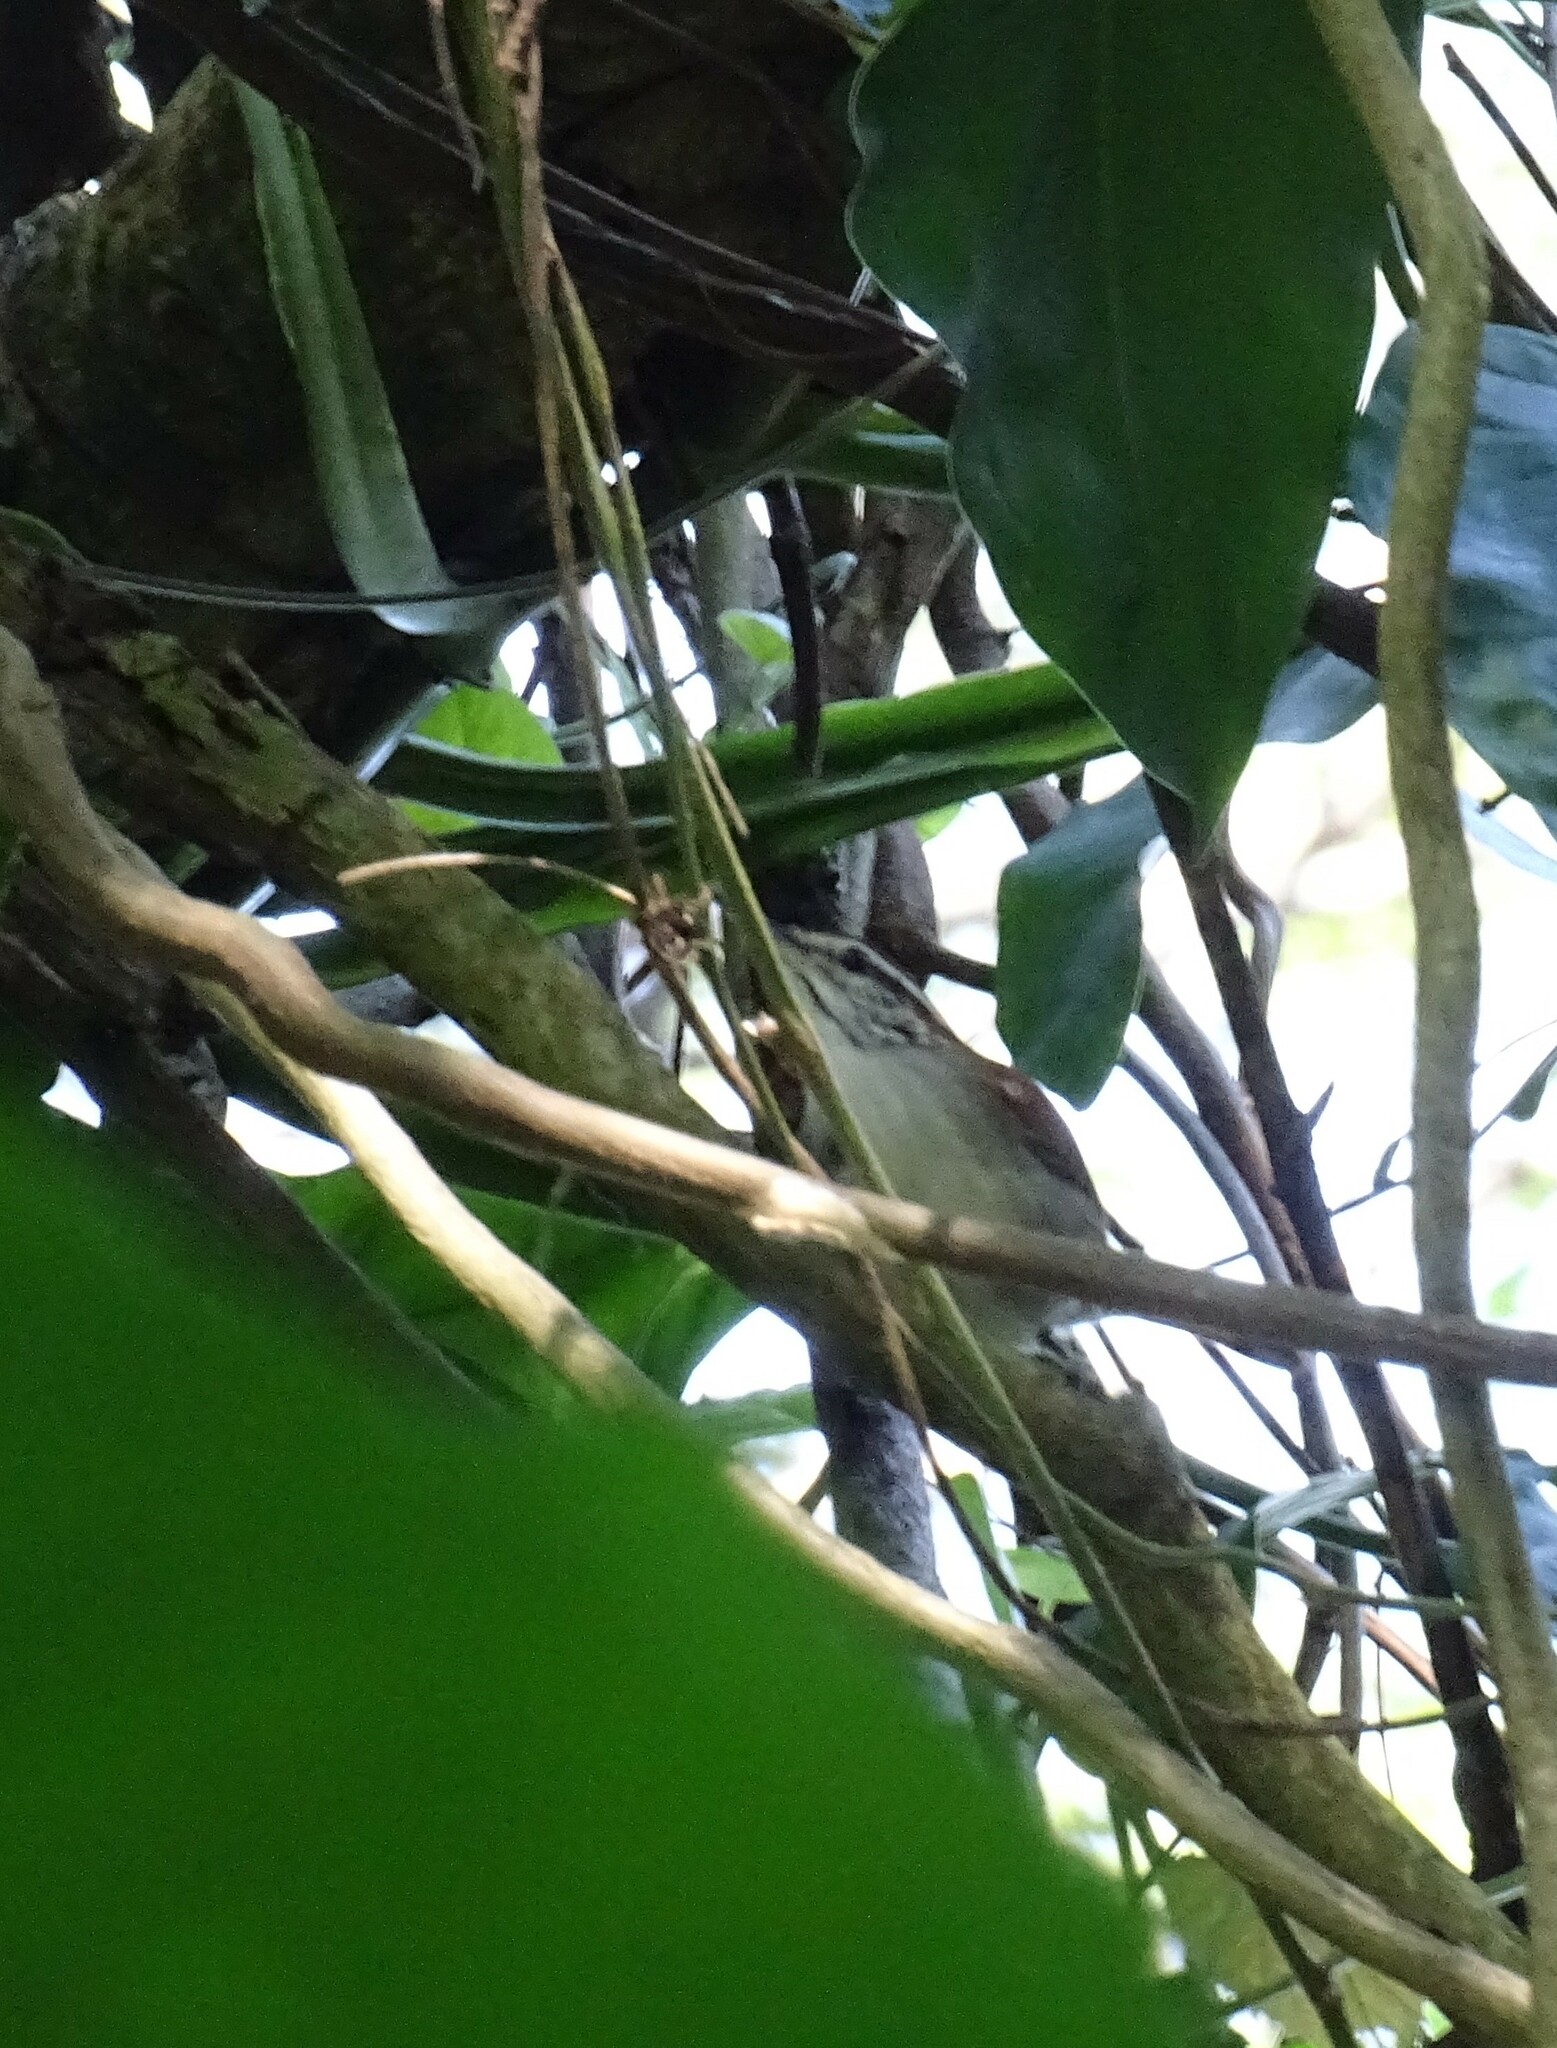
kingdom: Animalia
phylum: Chordata
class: Aves
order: Passeriformes
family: Troglodytidae
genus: Thryophilus
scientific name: Thryophilus rufalbus
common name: Rufous-and-white wren
